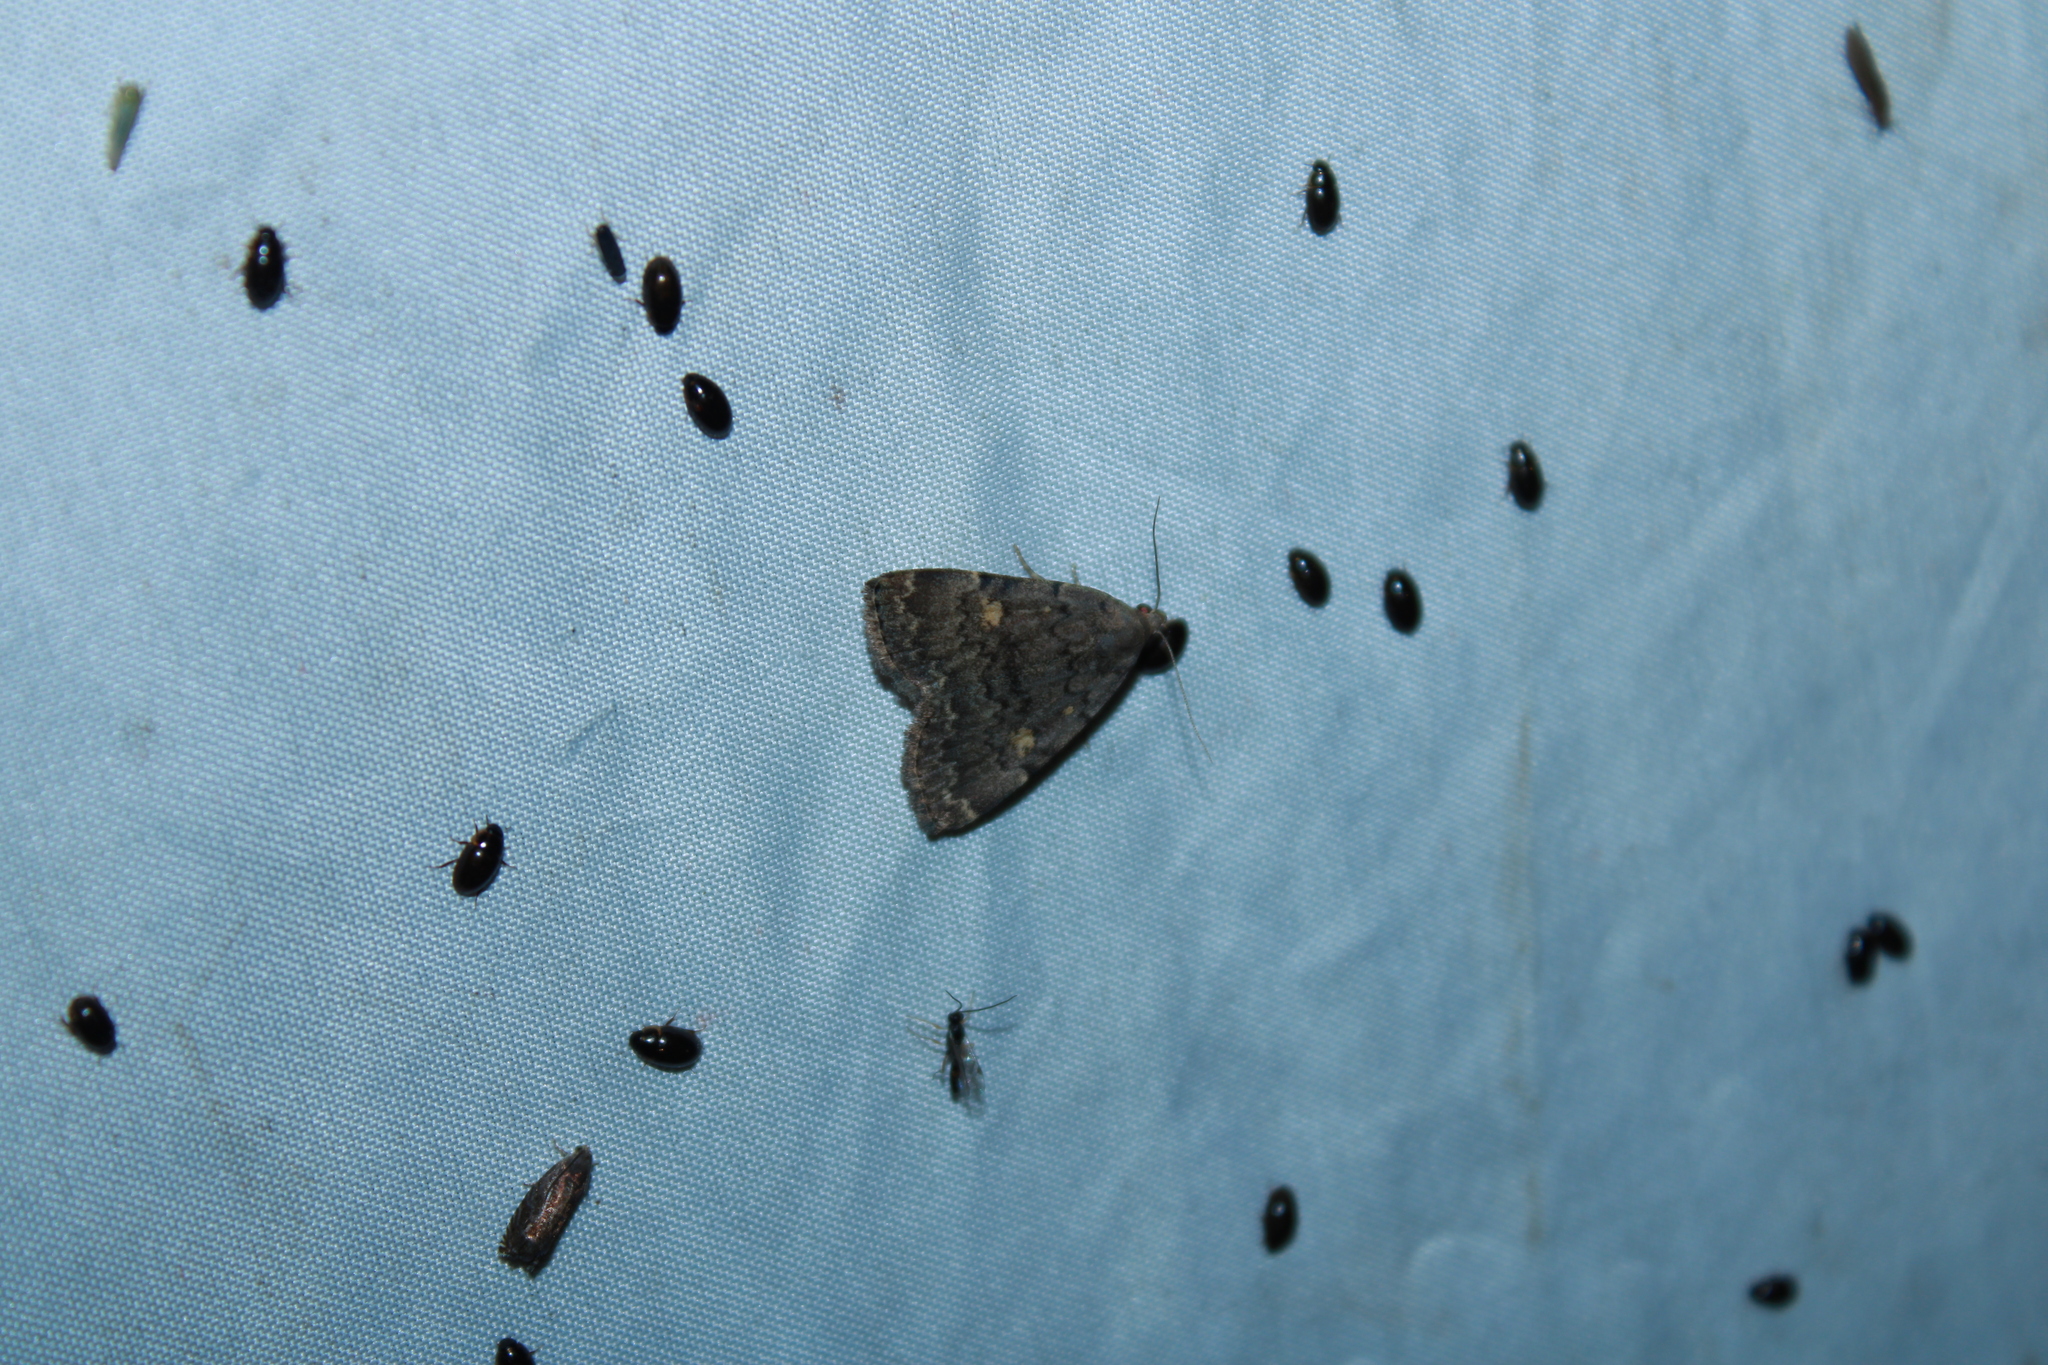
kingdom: Animalia
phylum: Arthropoda
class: Insecta
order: Lepidoptera
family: Erebidae
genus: Idia
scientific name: Idia aemula
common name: Common idia moth
